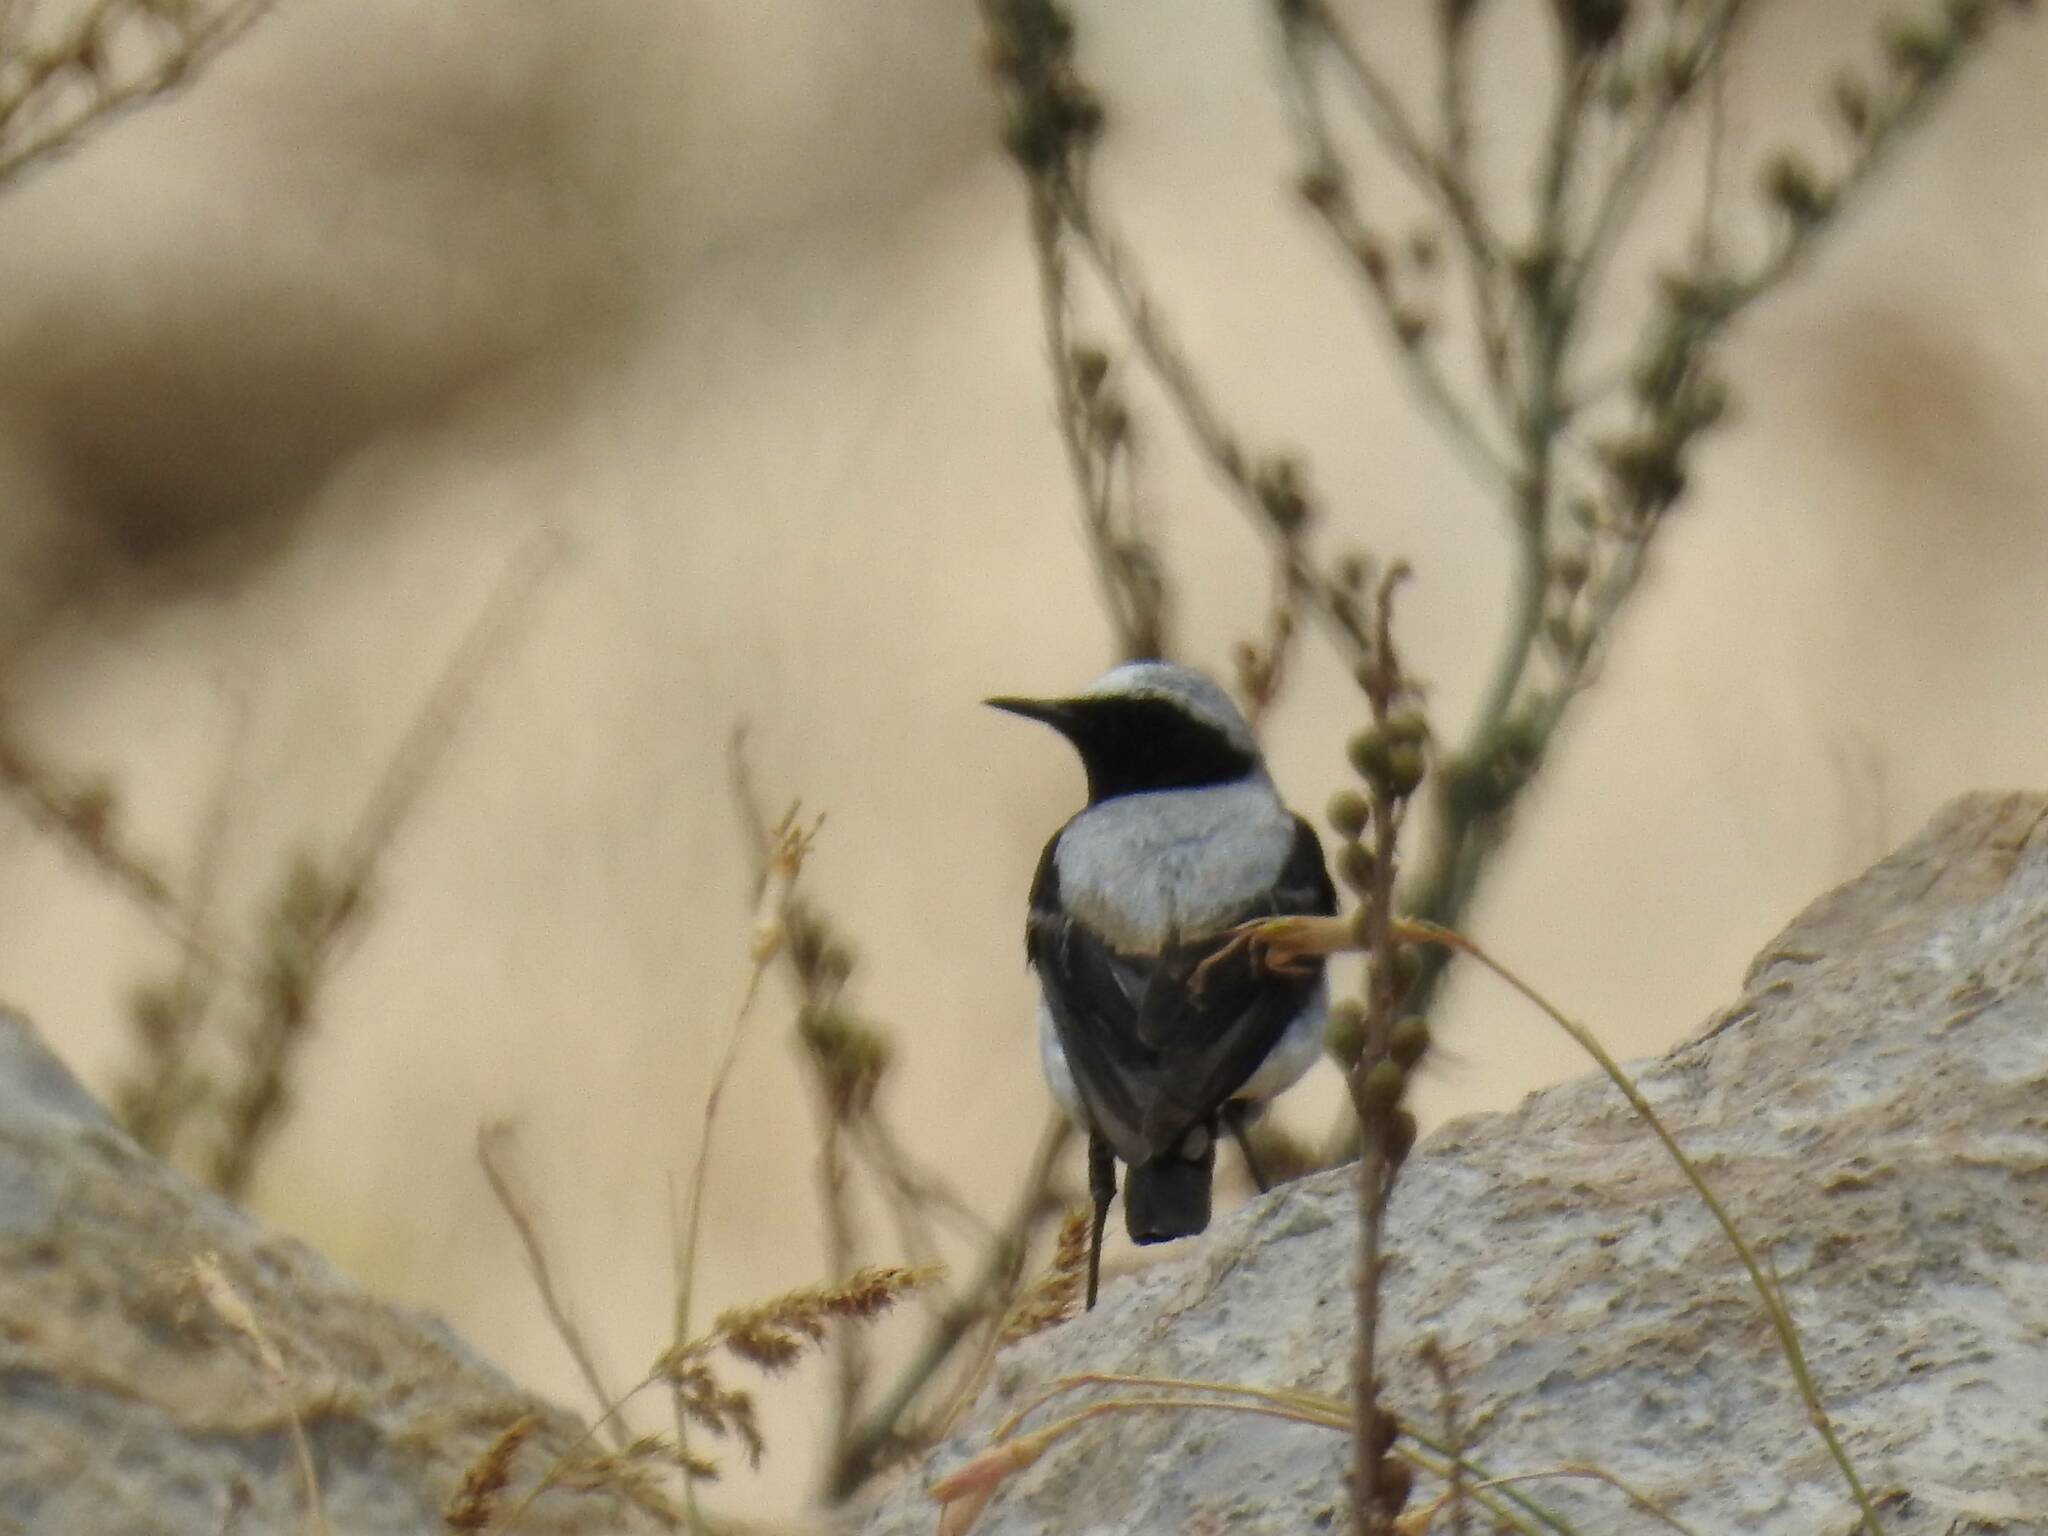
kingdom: Animalia
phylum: Chordata
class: Aves
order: Passeriformes
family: Muscicapidae
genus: Oenanthe
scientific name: Oenanthe oenanthe
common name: Northern wheatear
